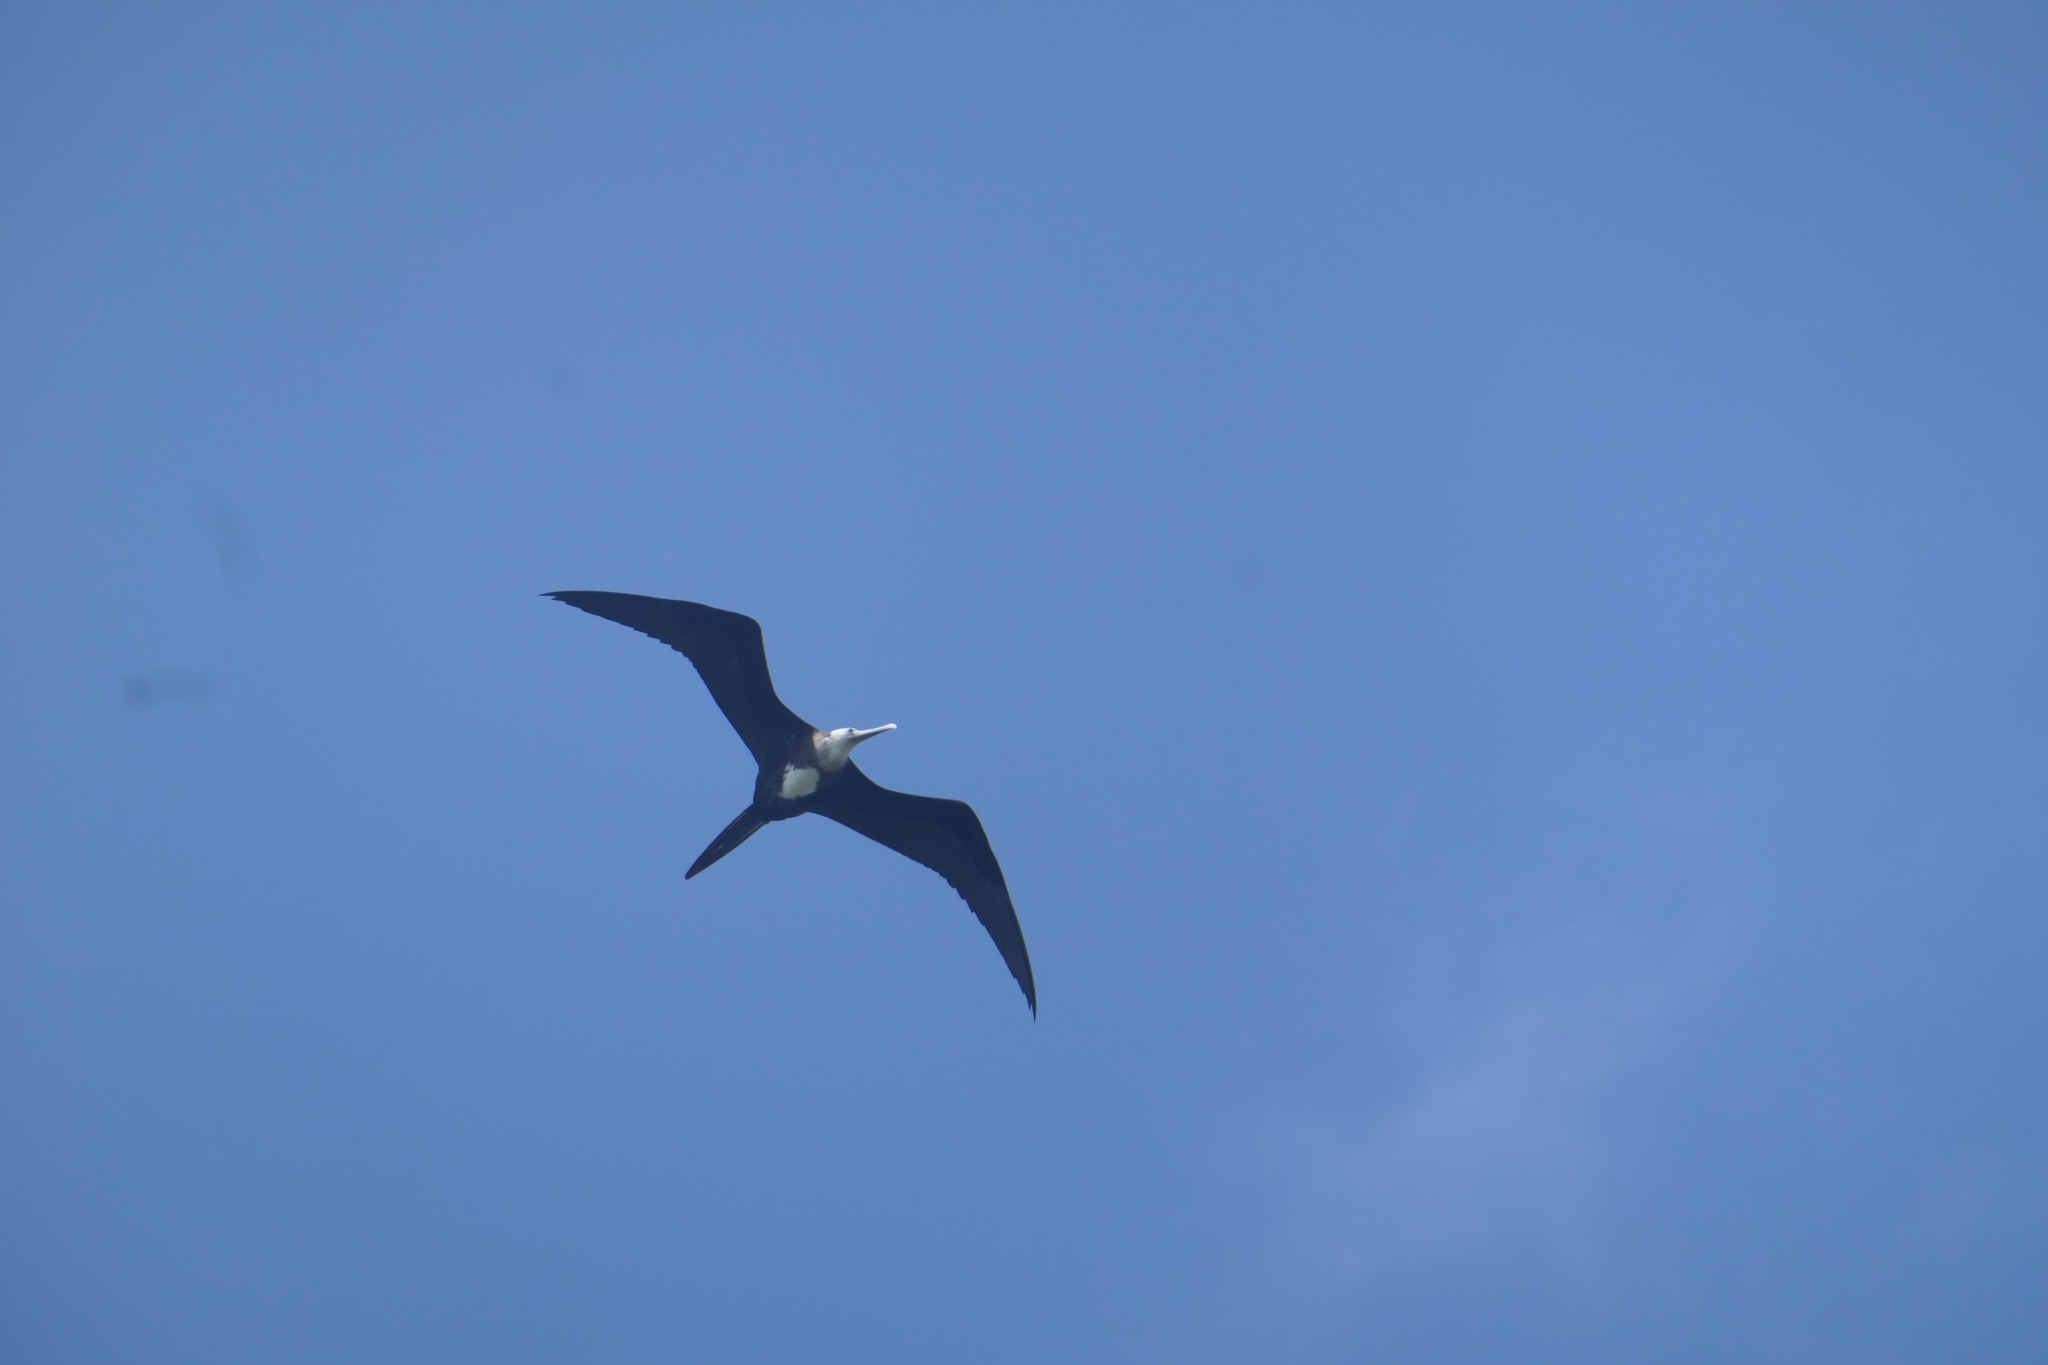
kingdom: Animalia
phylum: Chordata
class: Aves
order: Suliformes
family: Fregatidae
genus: Fregata
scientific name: Fregata magnificens
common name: Magnificent frigatebird
